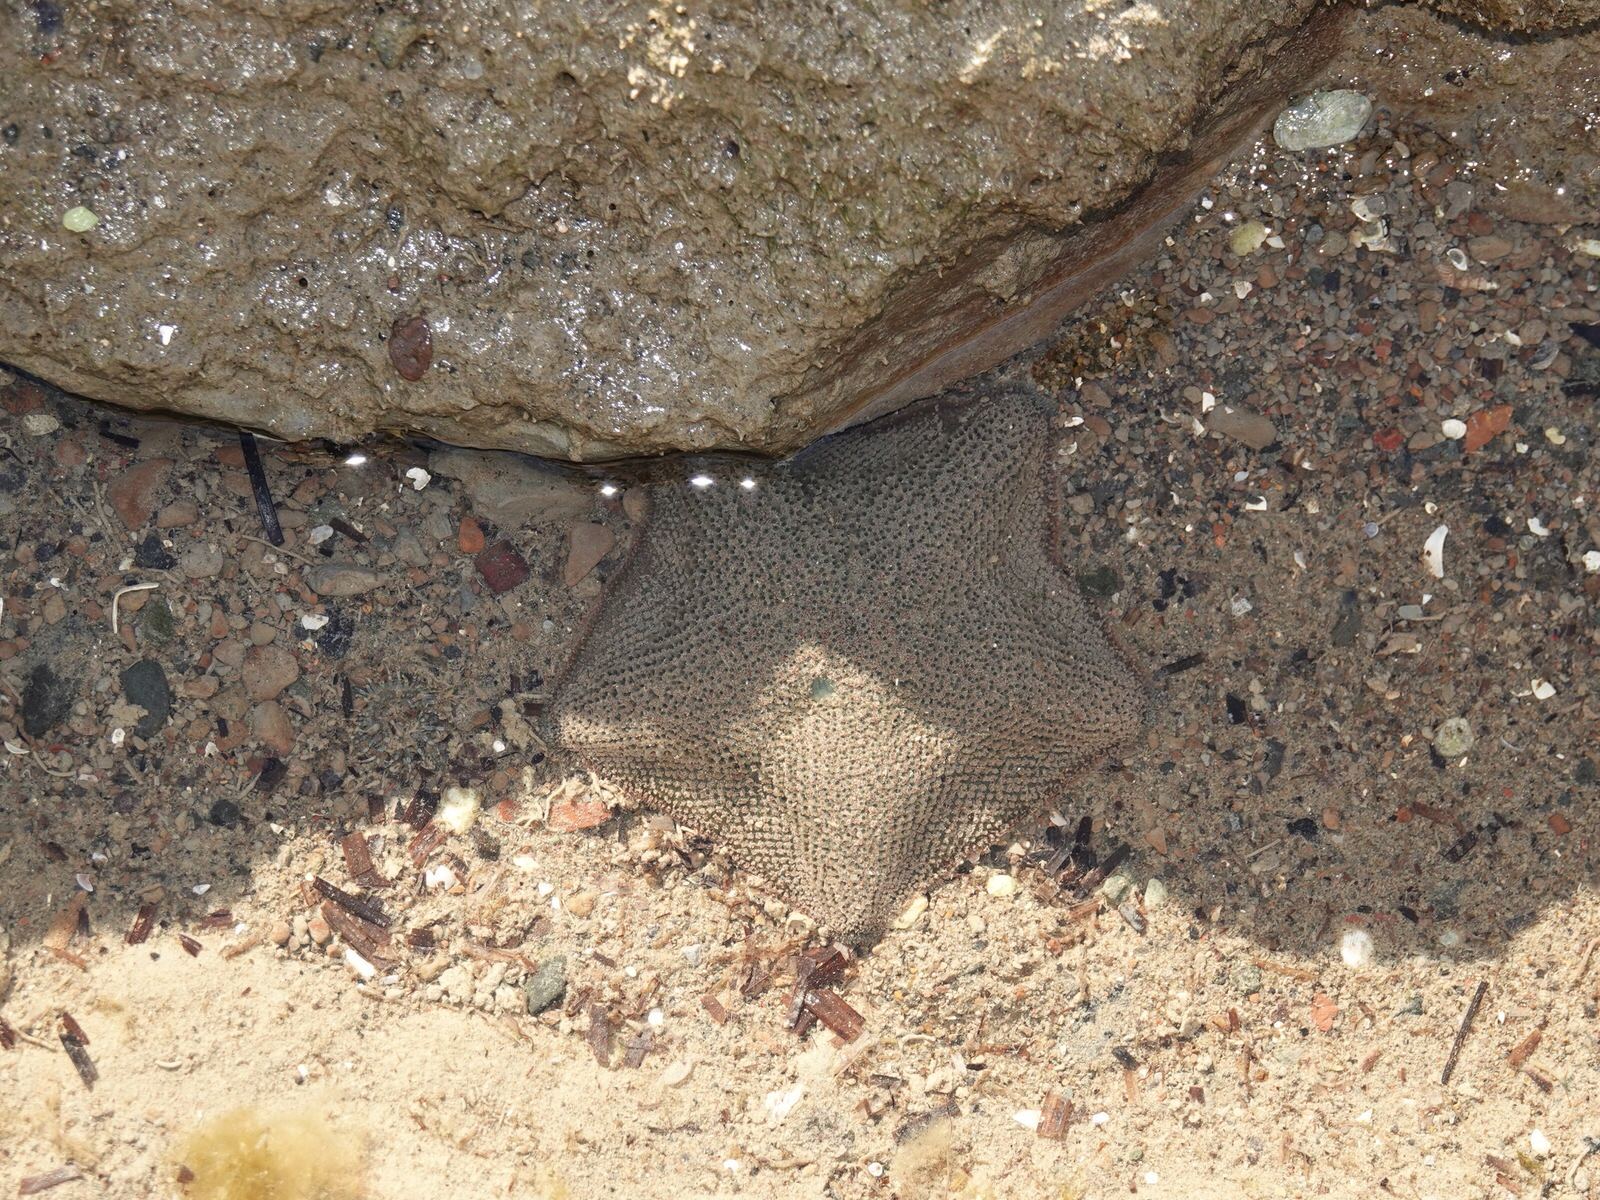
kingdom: Animalia
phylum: Echinodermata
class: Asteroidea
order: Valvatida
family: Asterinidae
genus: Patiriella
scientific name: Patiriella regularis
